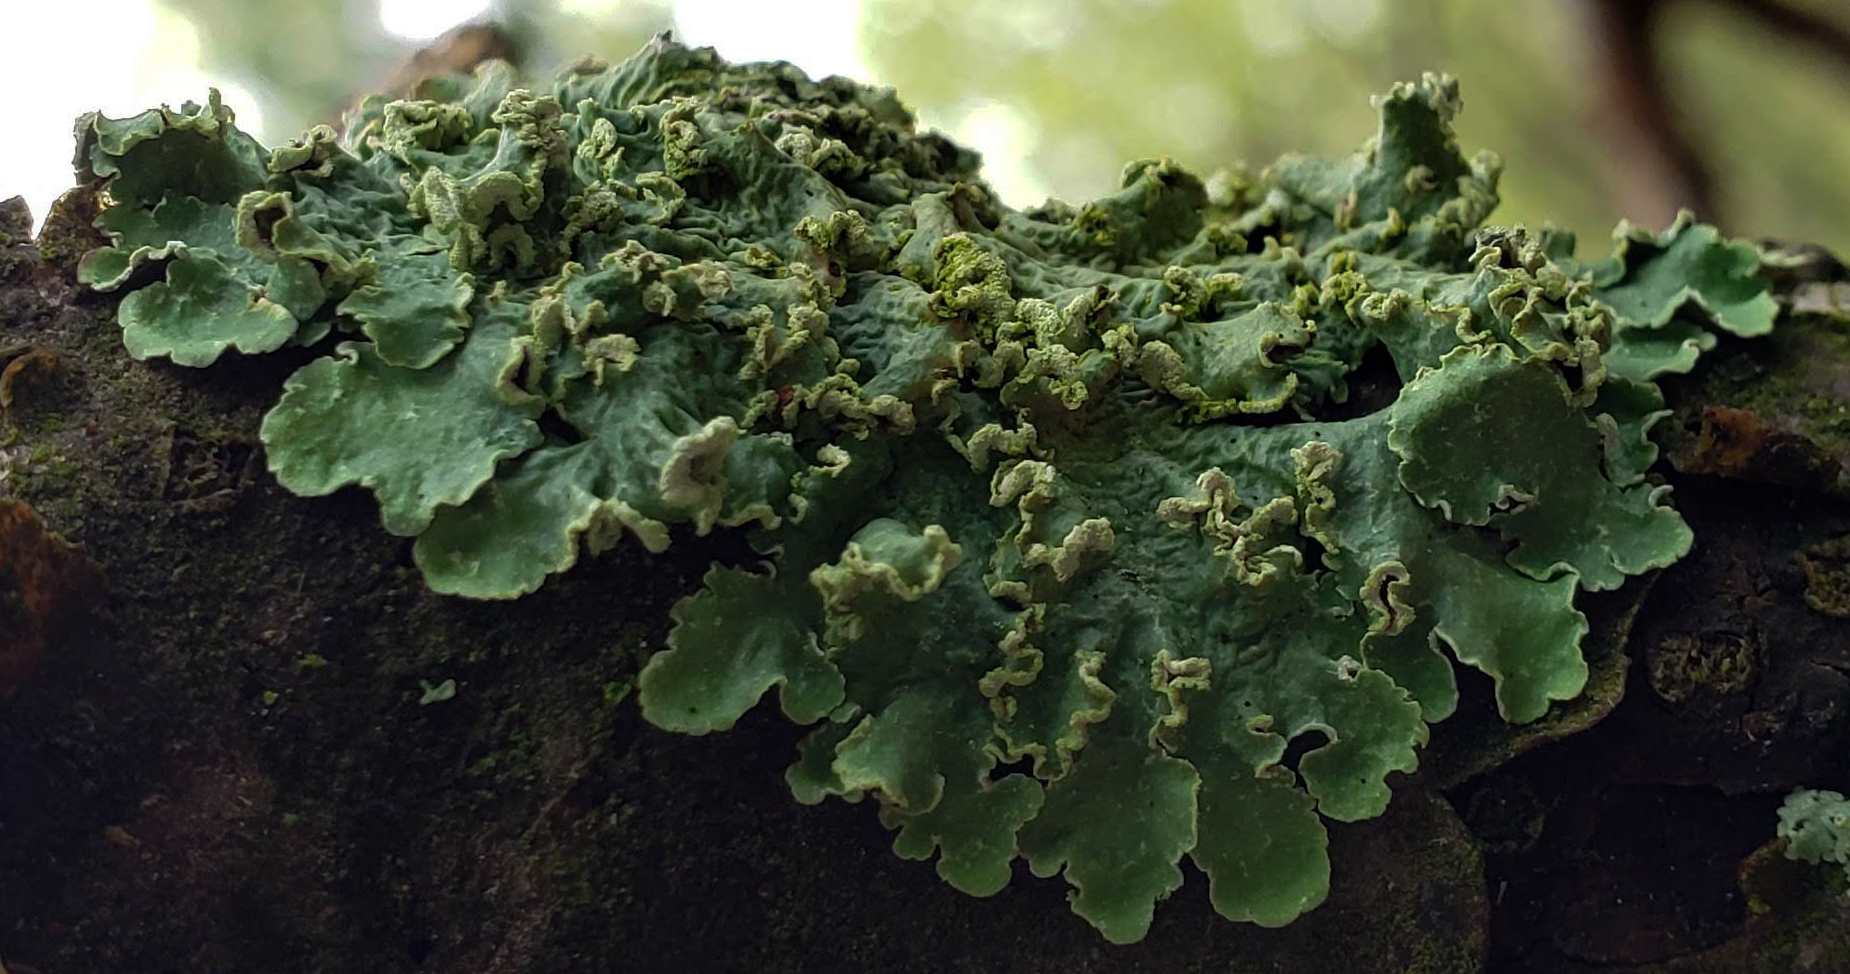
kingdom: Fungi
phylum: Ascomycota
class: Lecanoromycetes
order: Lecanorales
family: Parmeliaceae
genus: Flavopunctelia
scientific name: Flavopunctelia soredica
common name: Powder-edged speckled greenshield
